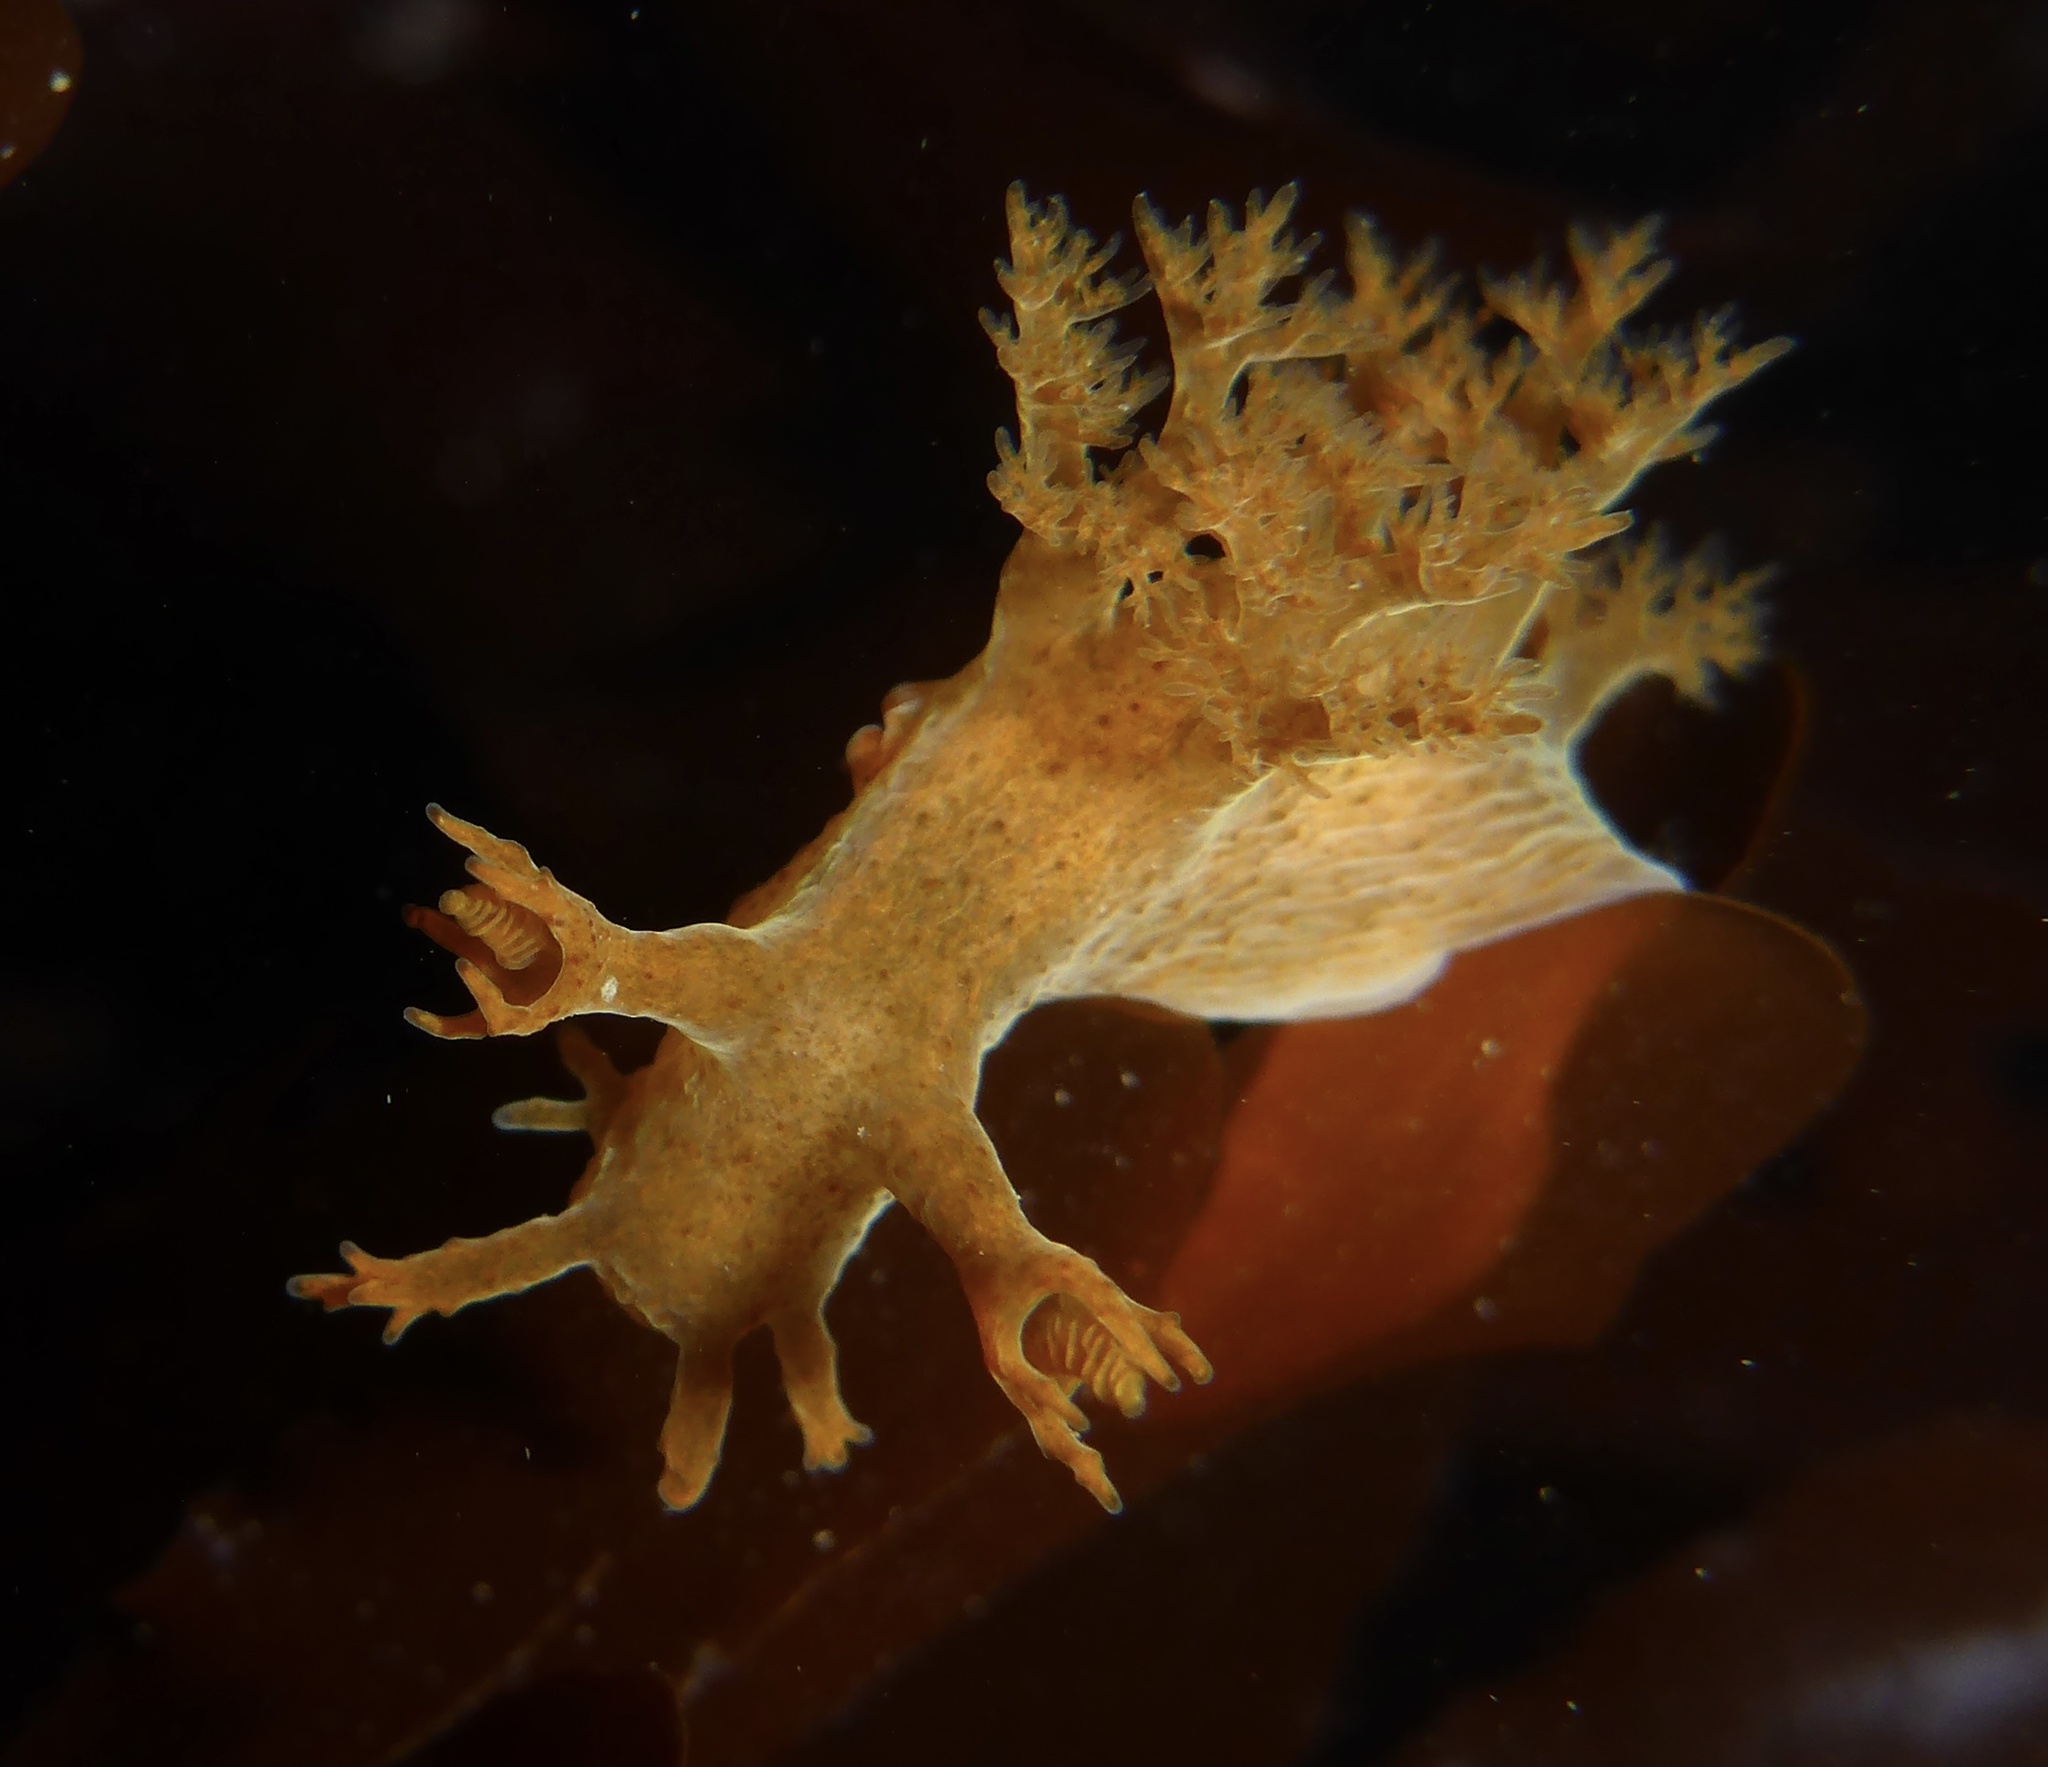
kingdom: Animalia
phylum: Mollusca
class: Gastropoda
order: Nudibranchia
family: Dendronotidae
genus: Dendronotus
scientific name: Dendronotus subramosus
